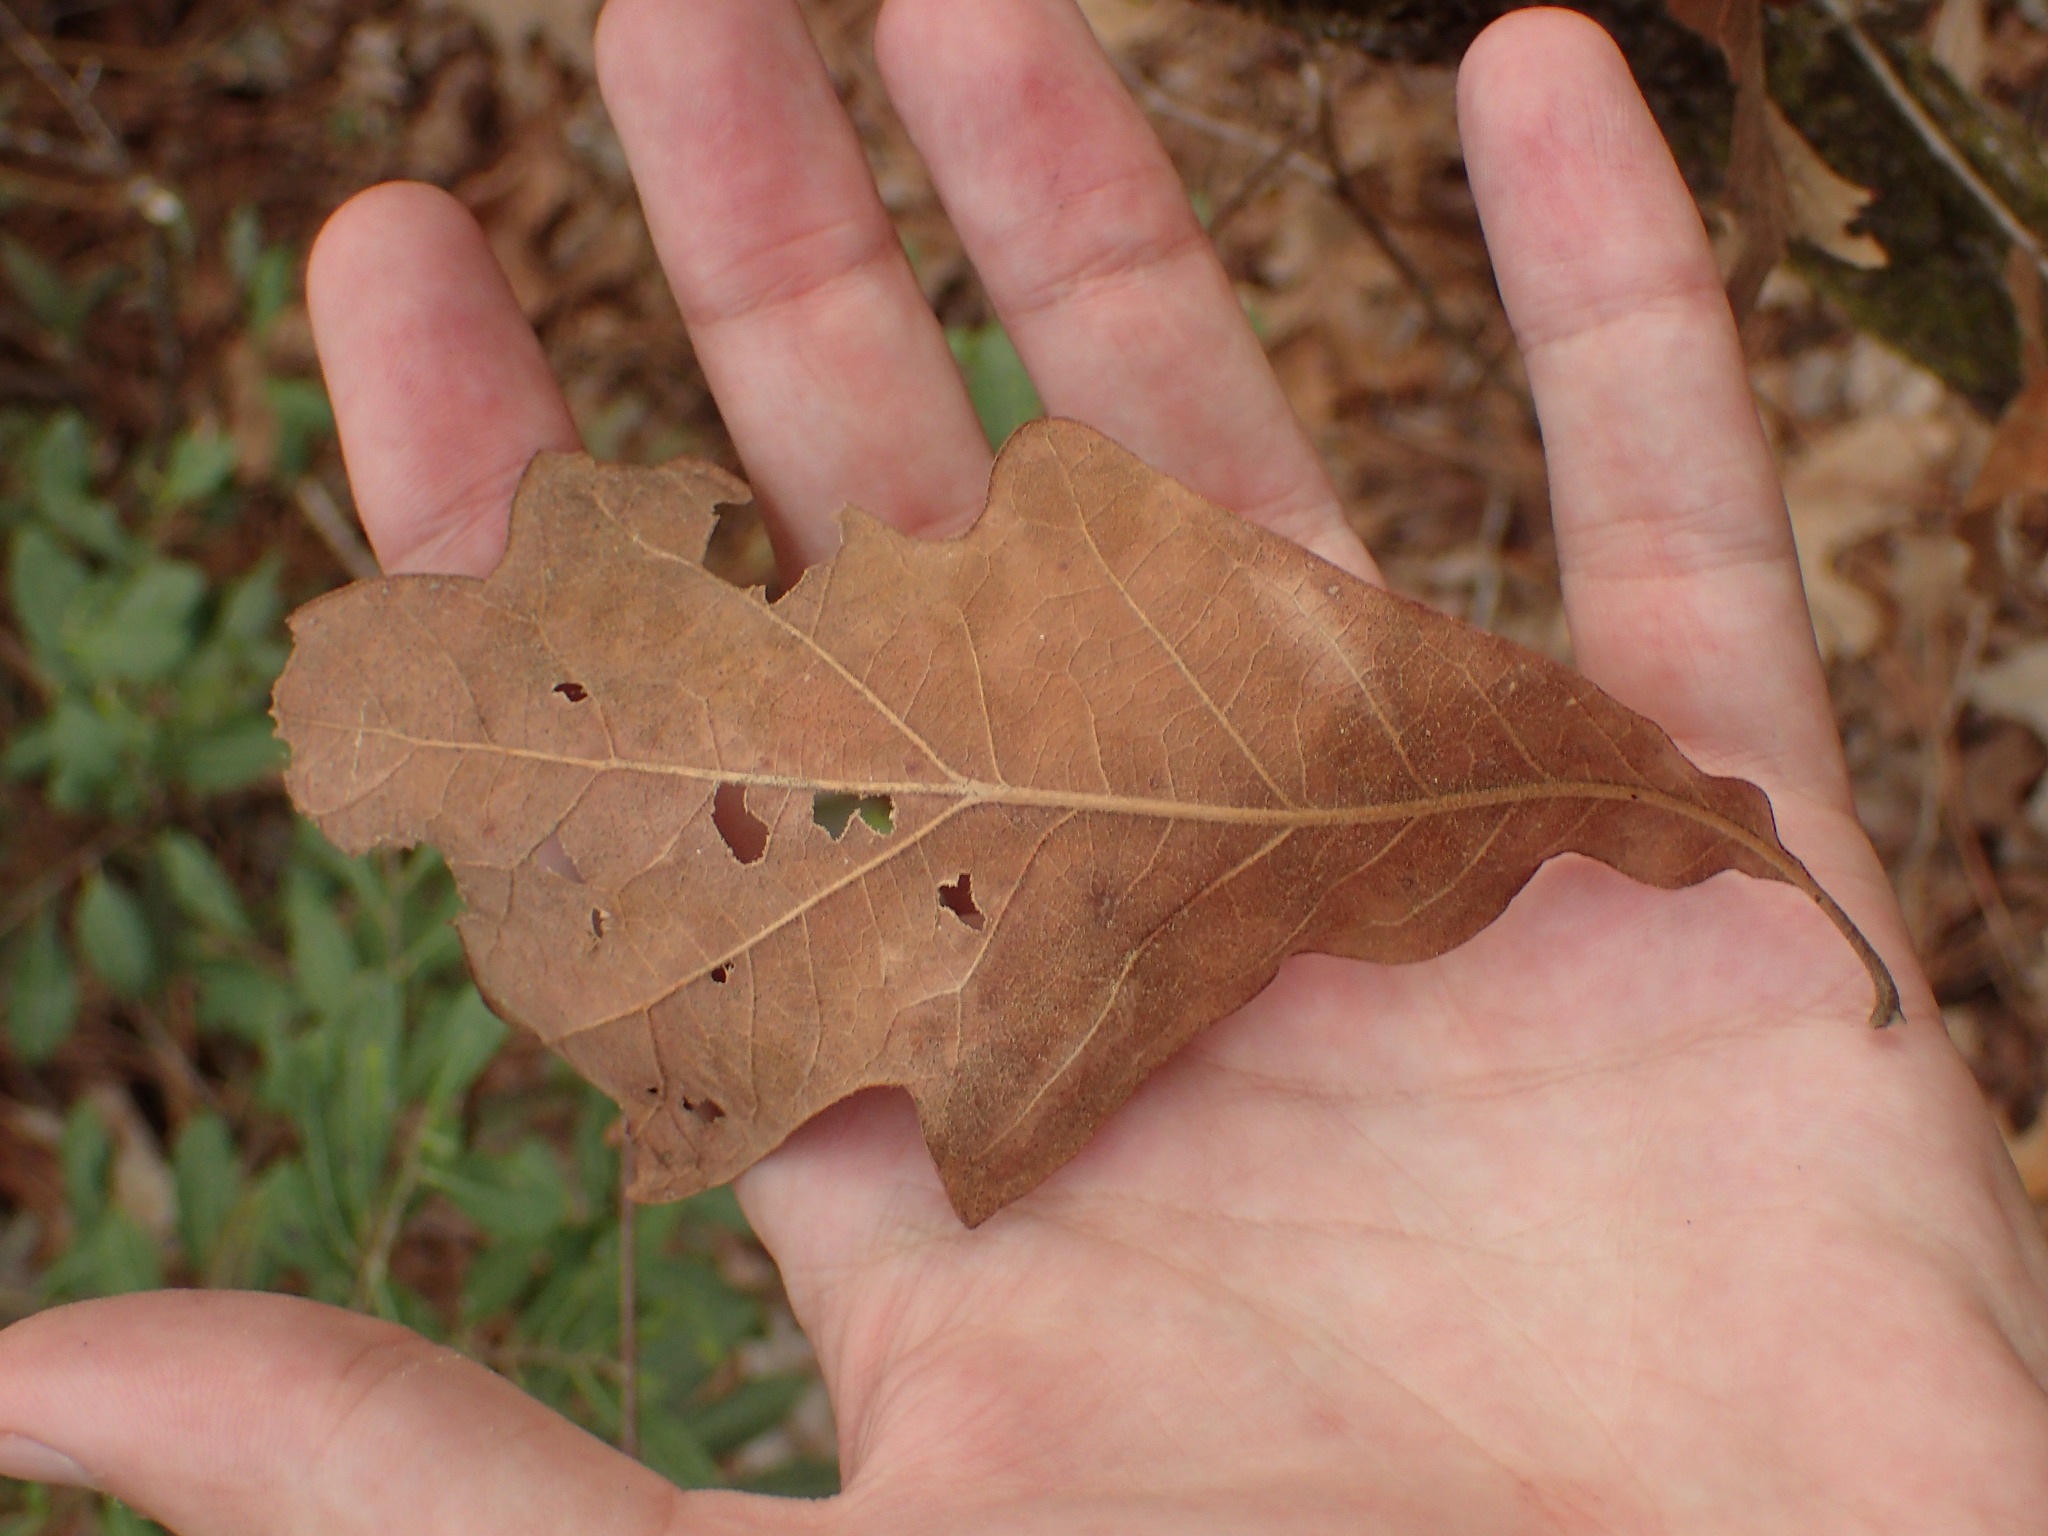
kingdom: Plantae
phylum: Tracheophyta
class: Magnoliopsida
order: Fagales
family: Fagaceae
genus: Quercus
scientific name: Quercus stellata
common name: Post oak
